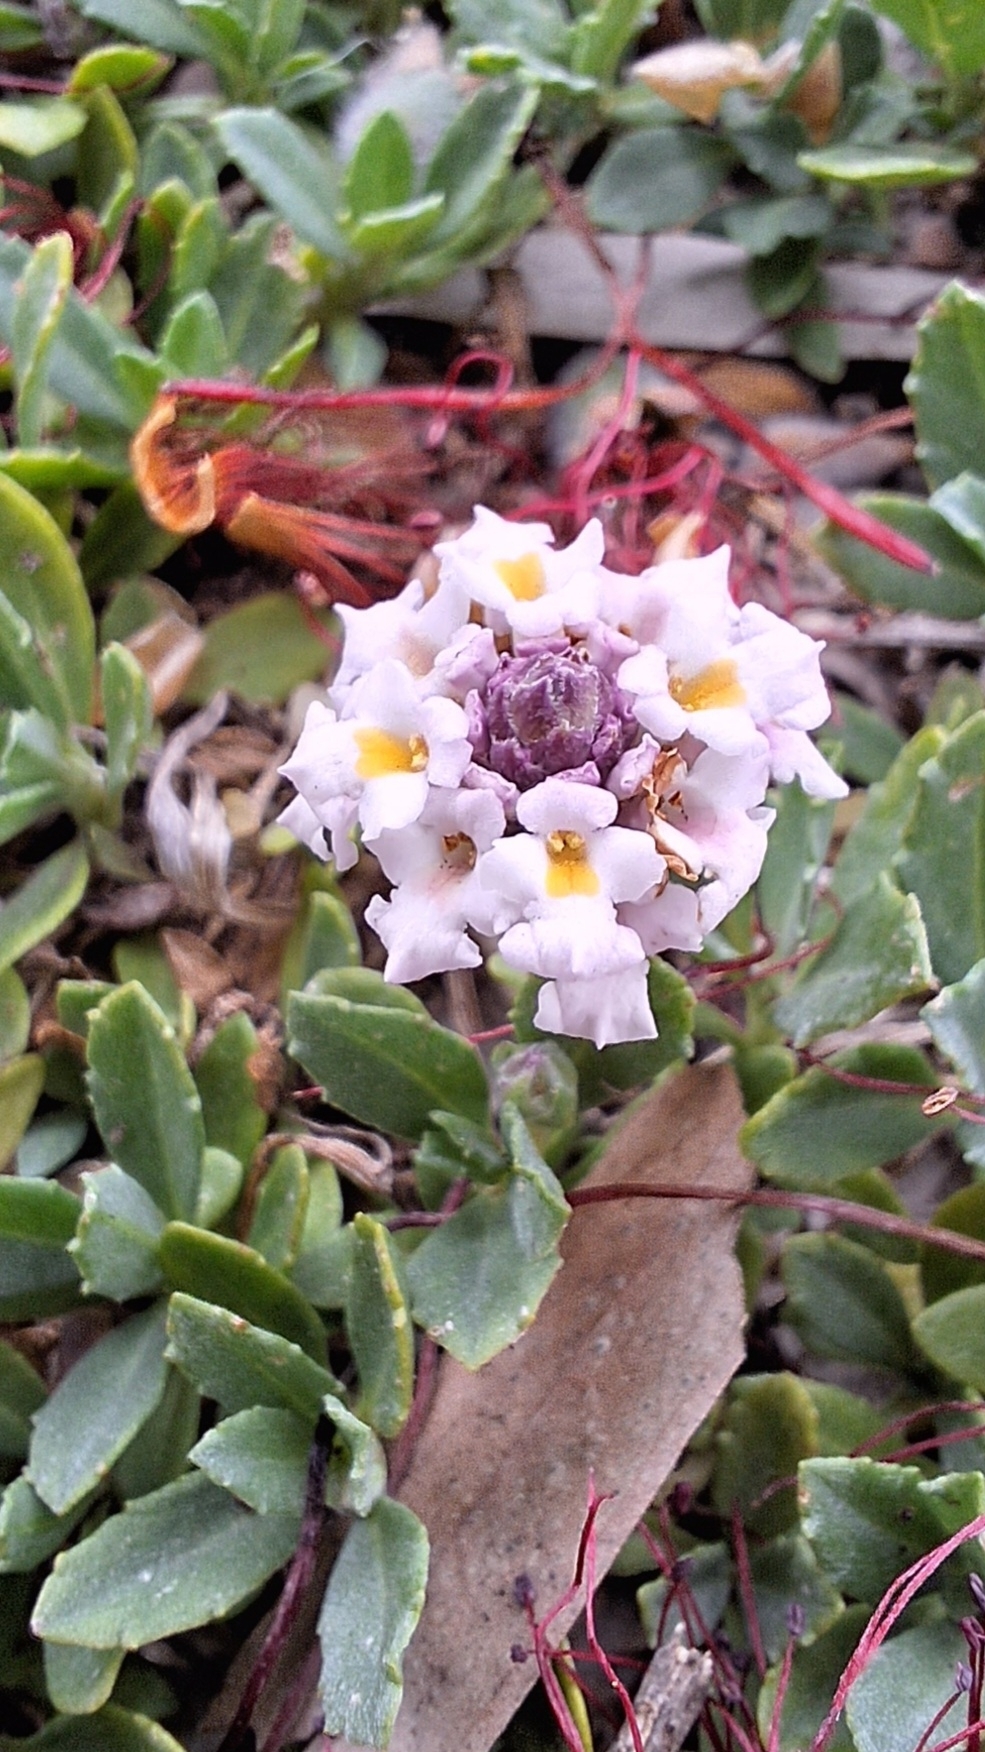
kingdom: Plantae
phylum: Tracheophyta
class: Magnoliopsida
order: Lamiales
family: Verbenaceae
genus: Phyla
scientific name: Phyla nodiflora
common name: Frogfruit
